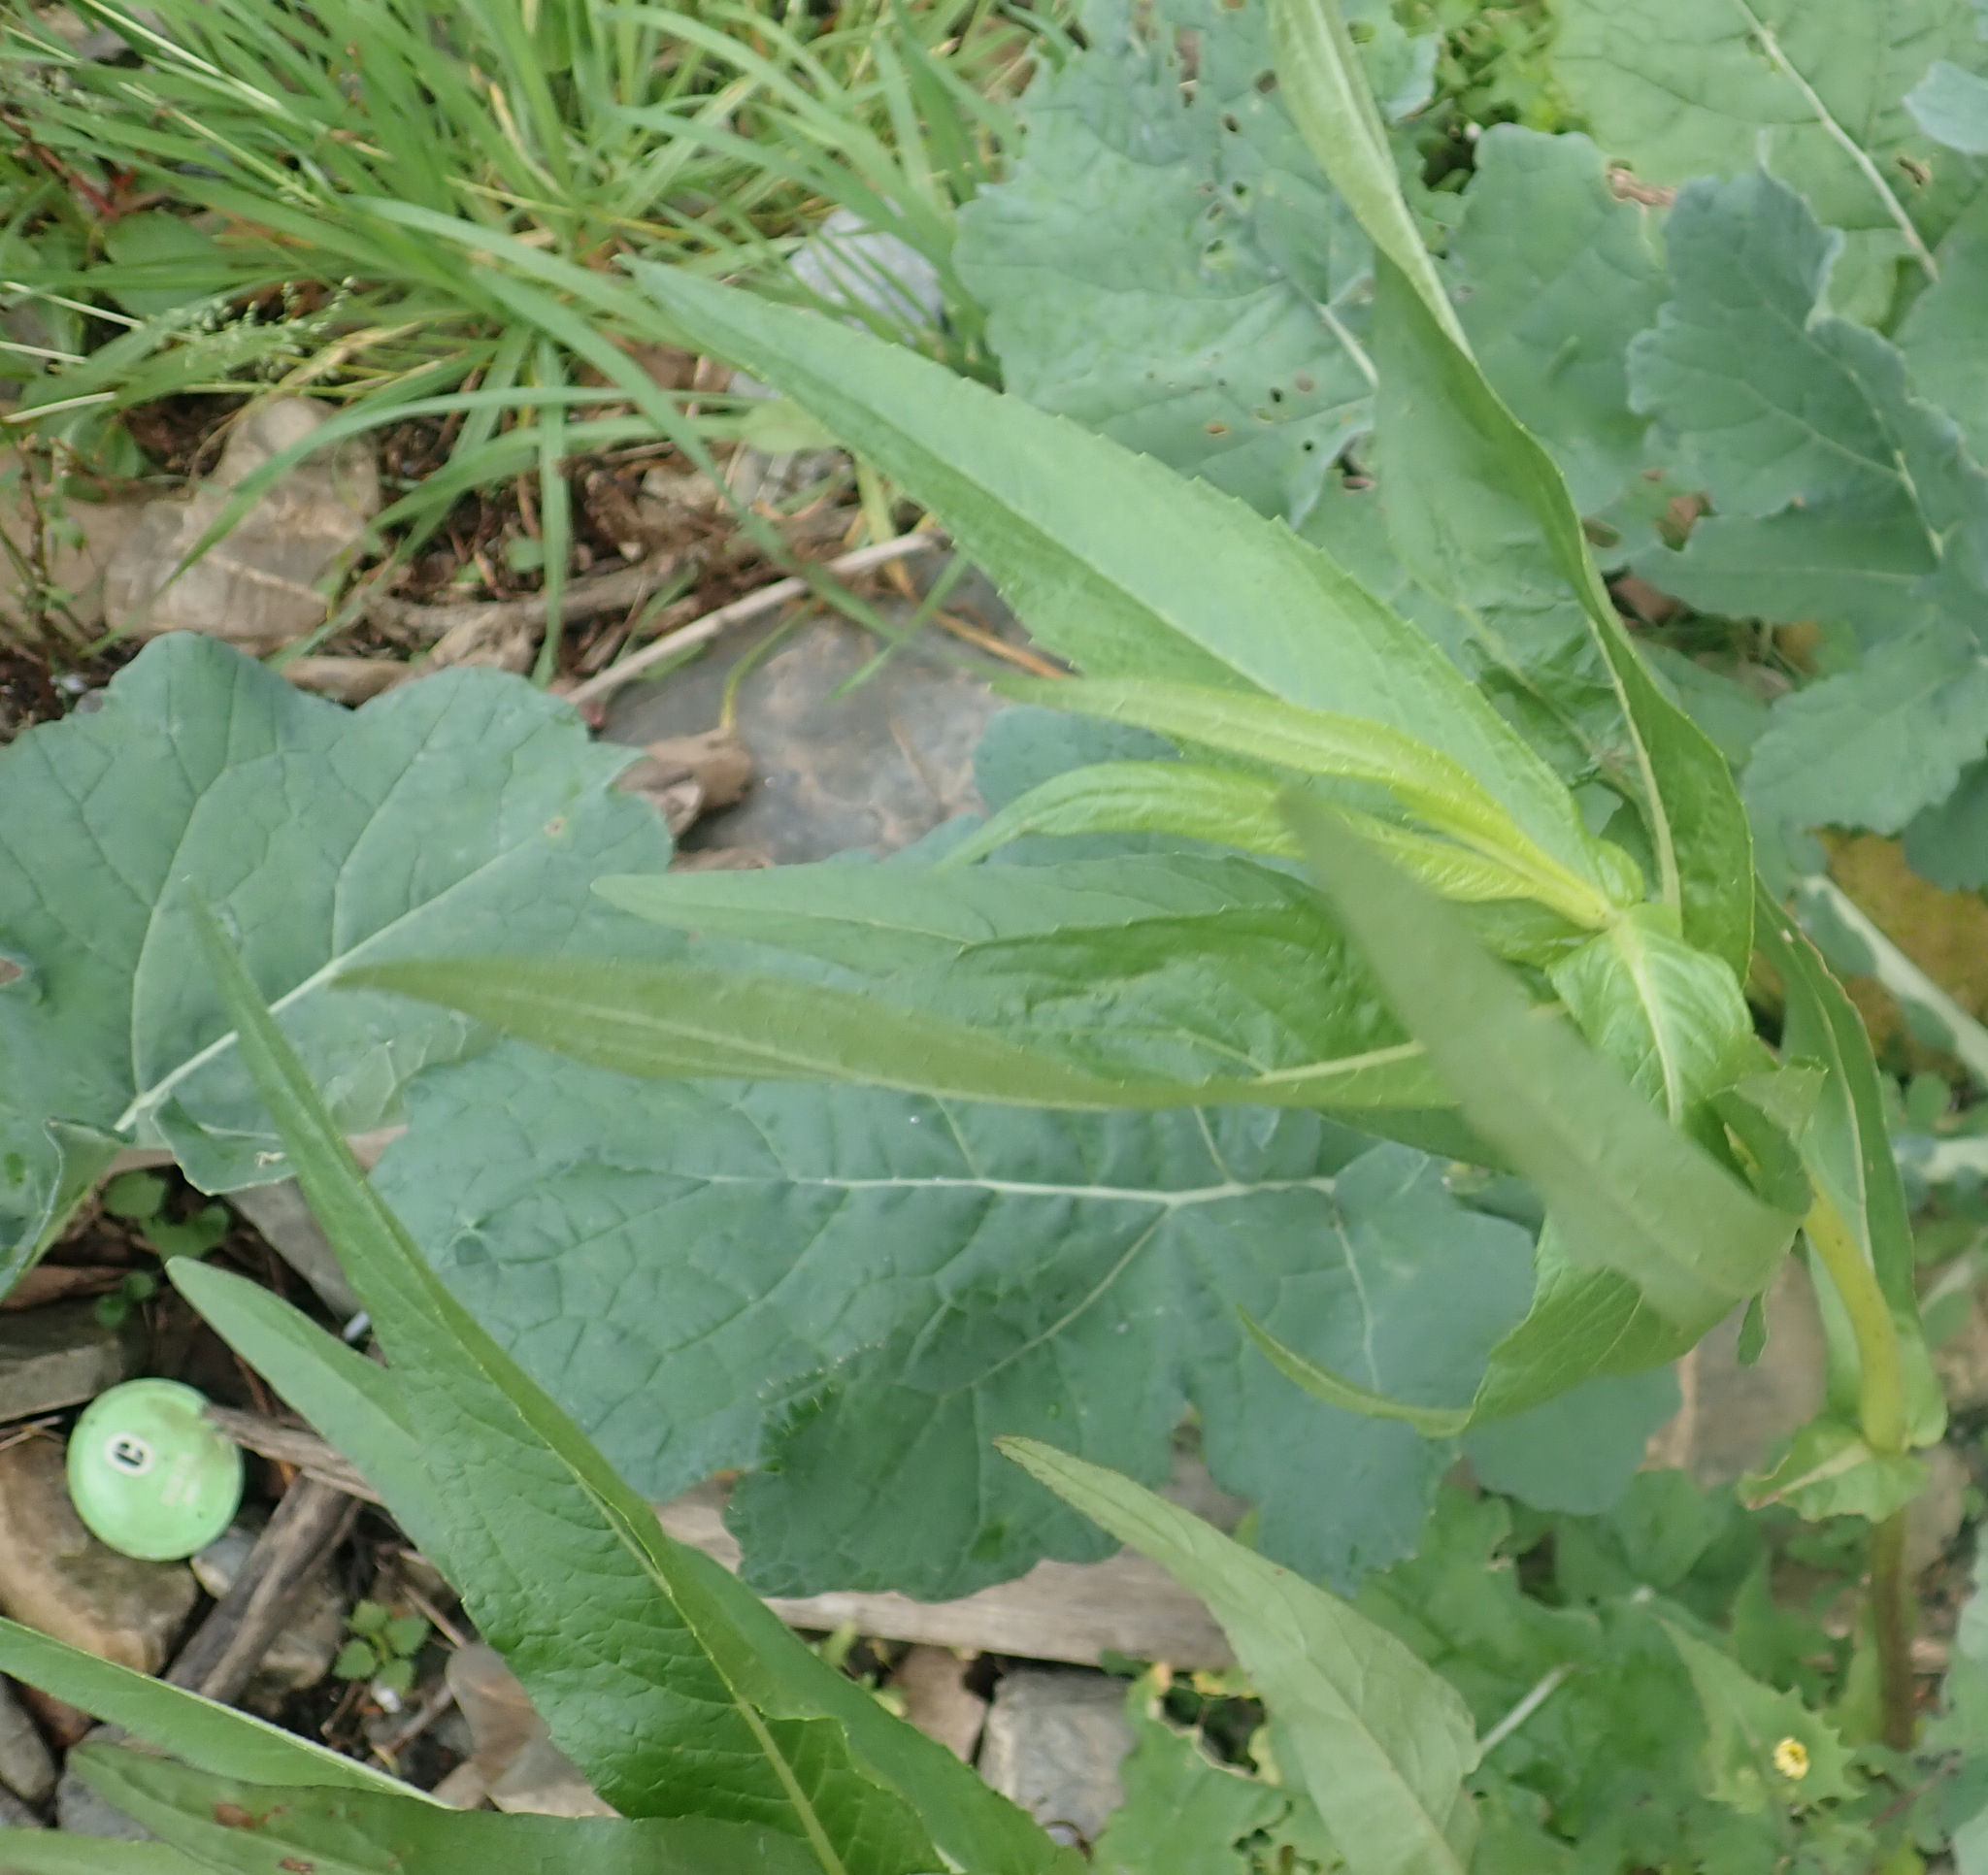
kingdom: Plantae
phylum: Tracheophyta
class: Magnoliopsida
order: Asterales
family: Asteraceae
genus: Guizotia
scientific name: Guizotia abyssinica
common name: Niger
